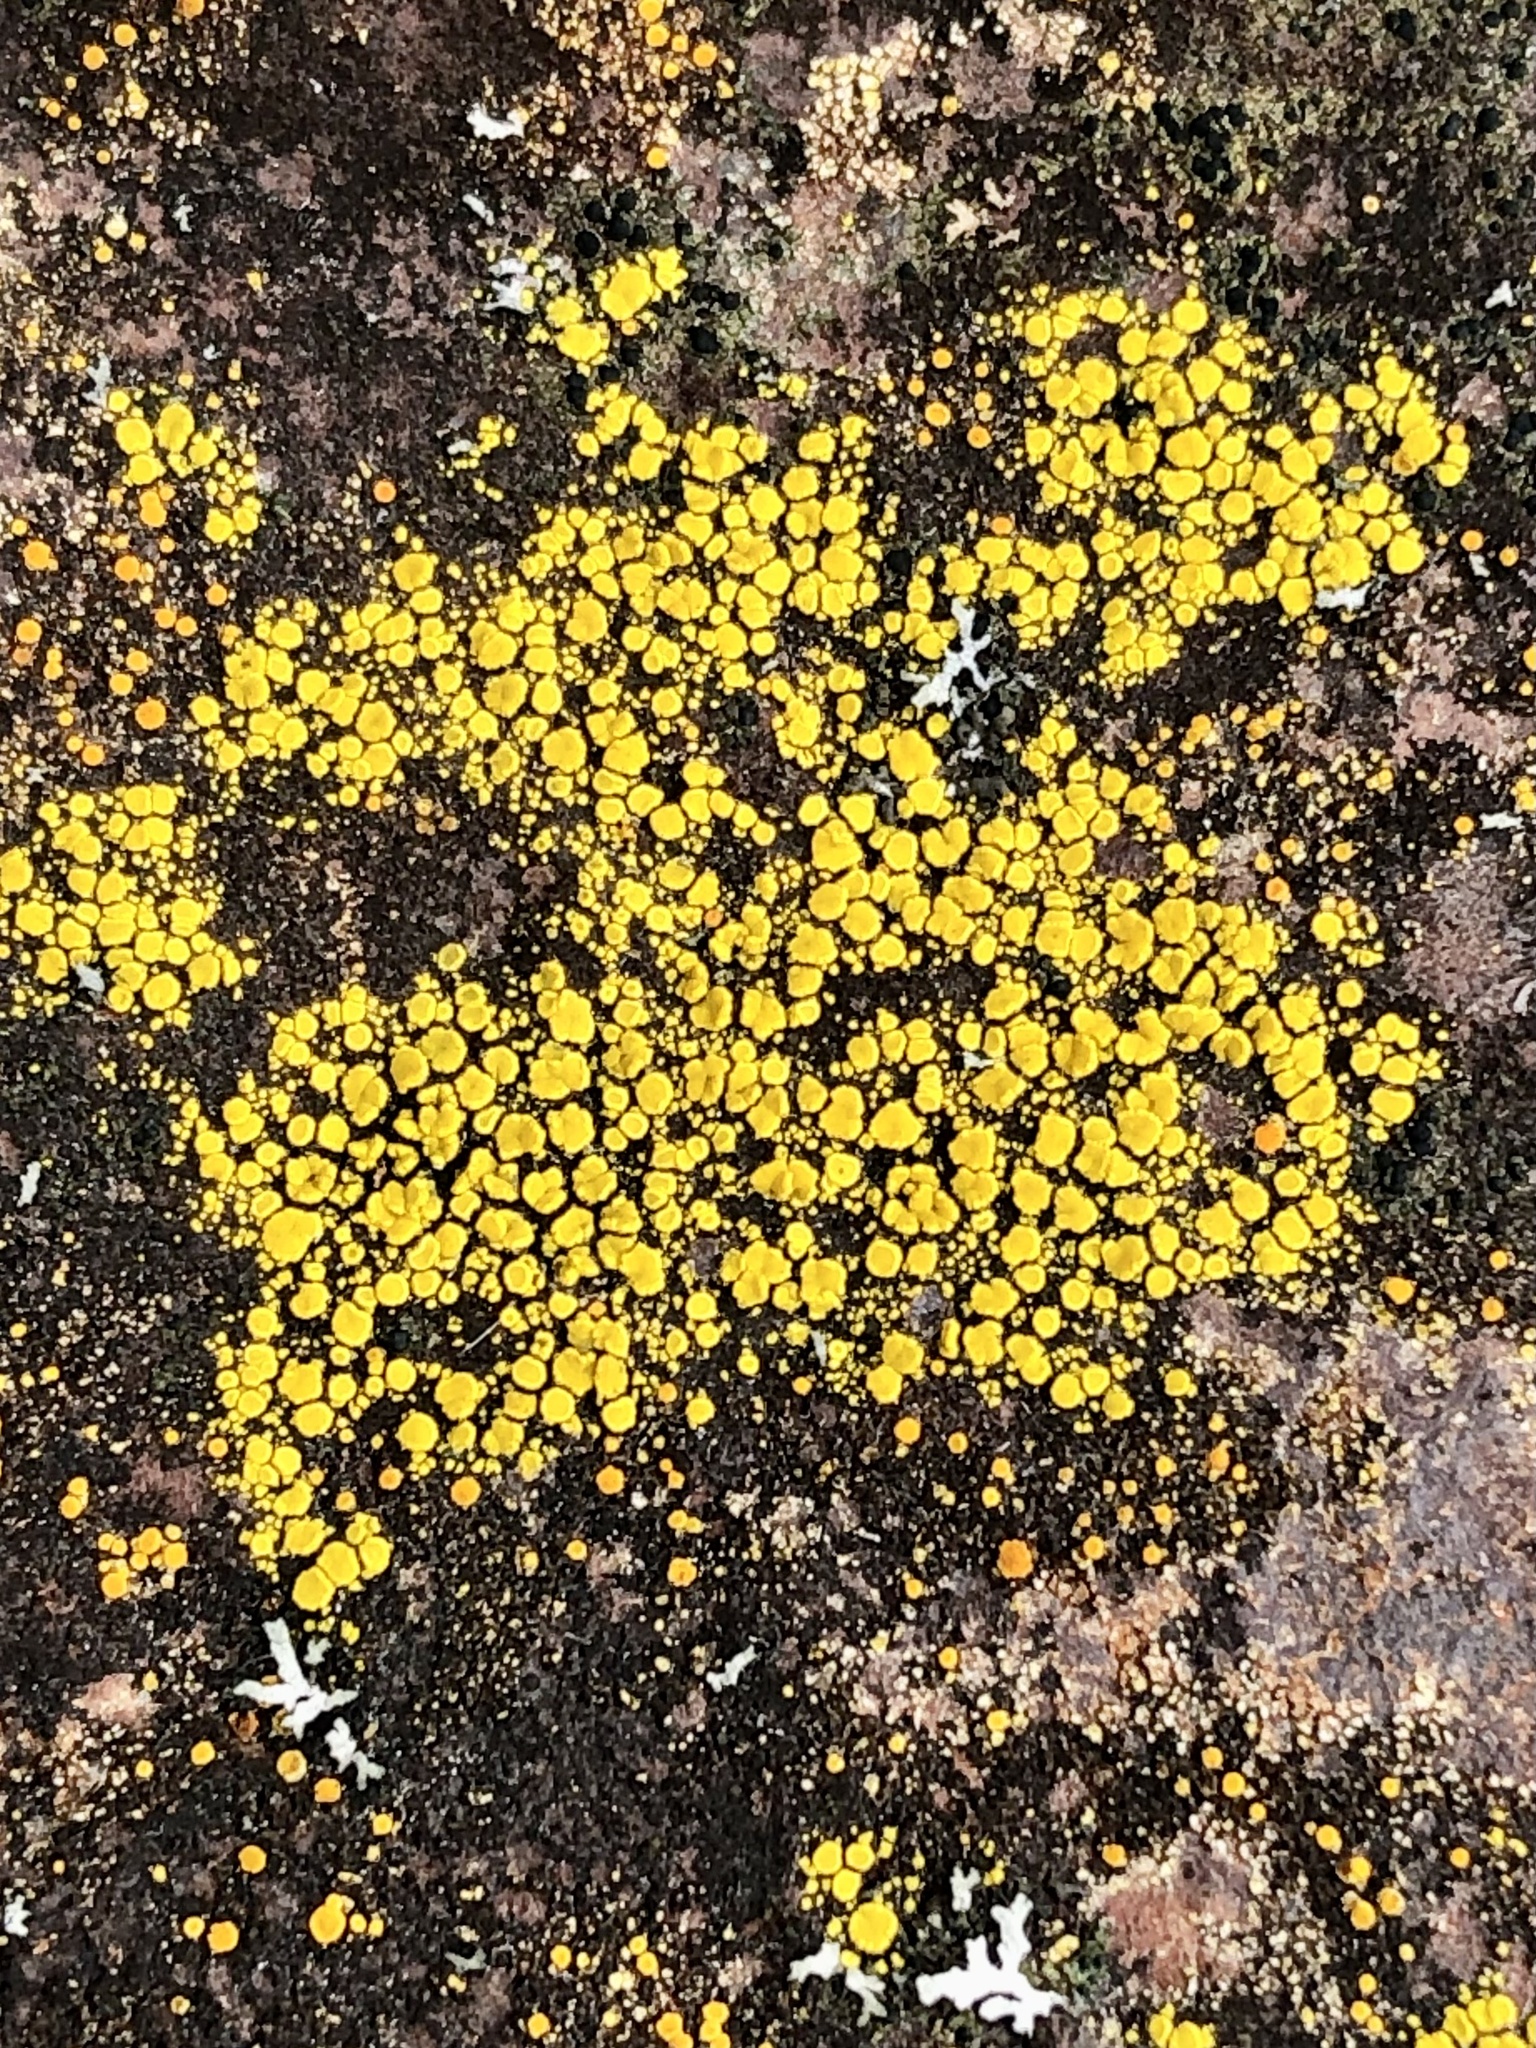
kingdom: Fungi
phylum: Ascomycota
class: Candelariomycetes
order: Candelariales
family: Candelariaceae
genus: Candelariella
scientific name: Candelariella vitellina
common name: Common goldspeck
